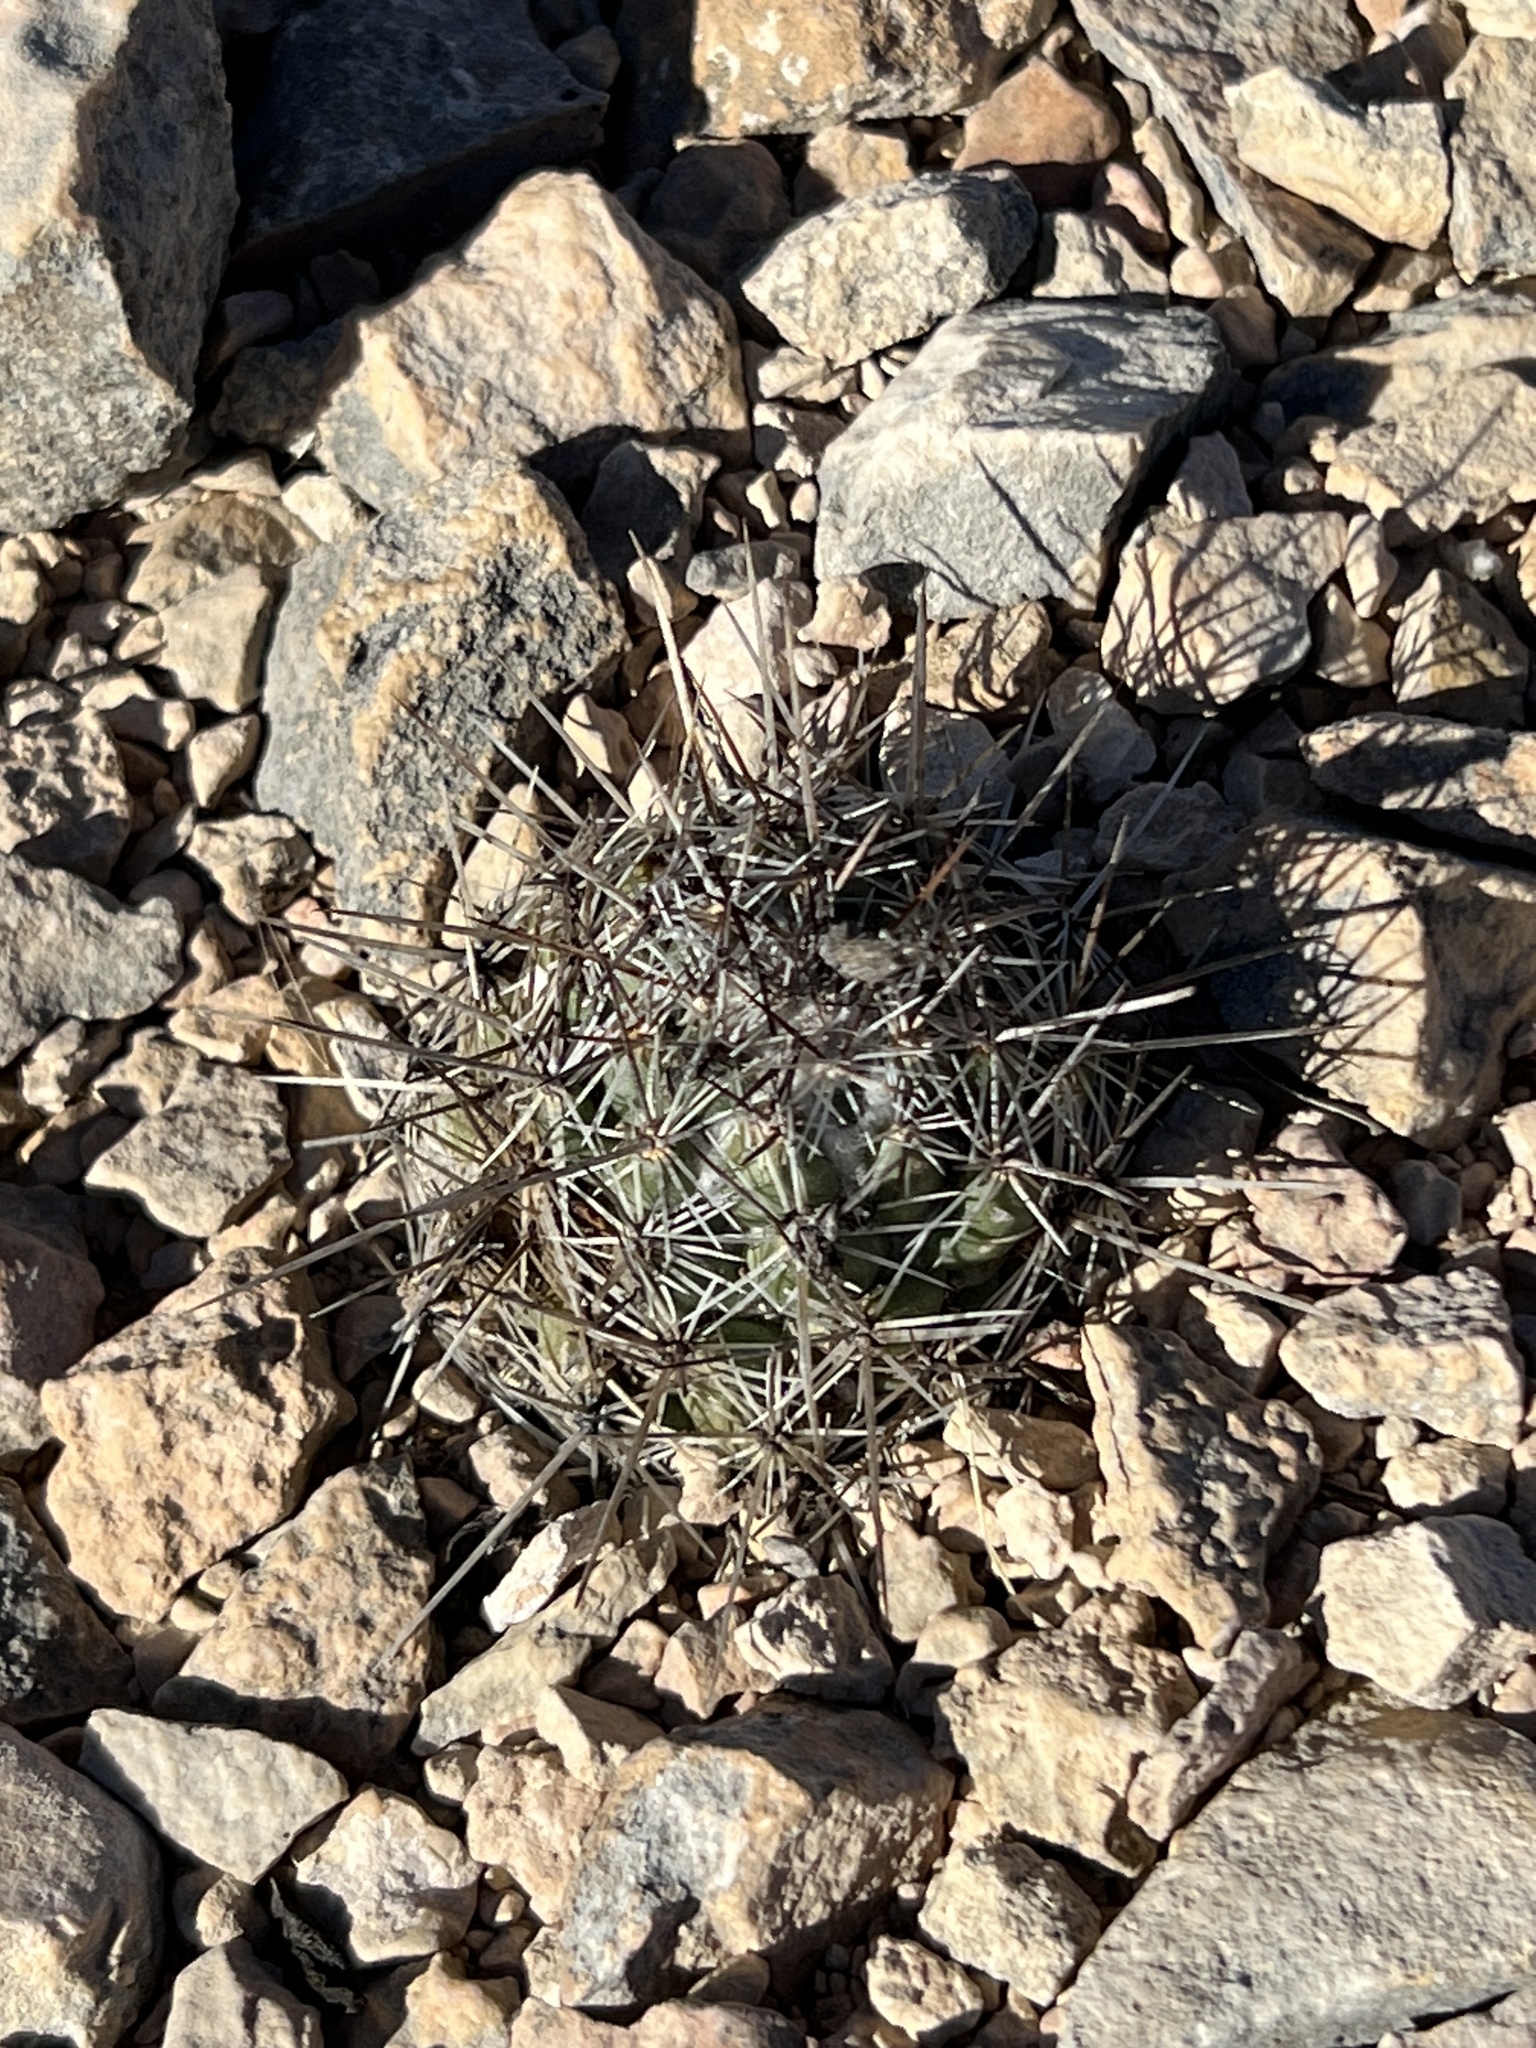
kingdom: Plantae
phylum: Tracheophyta
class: Magnoliopsida
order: Caryophyllales
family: Cactaceae
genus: Cochemiea
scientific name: Cochemiea conoidea
